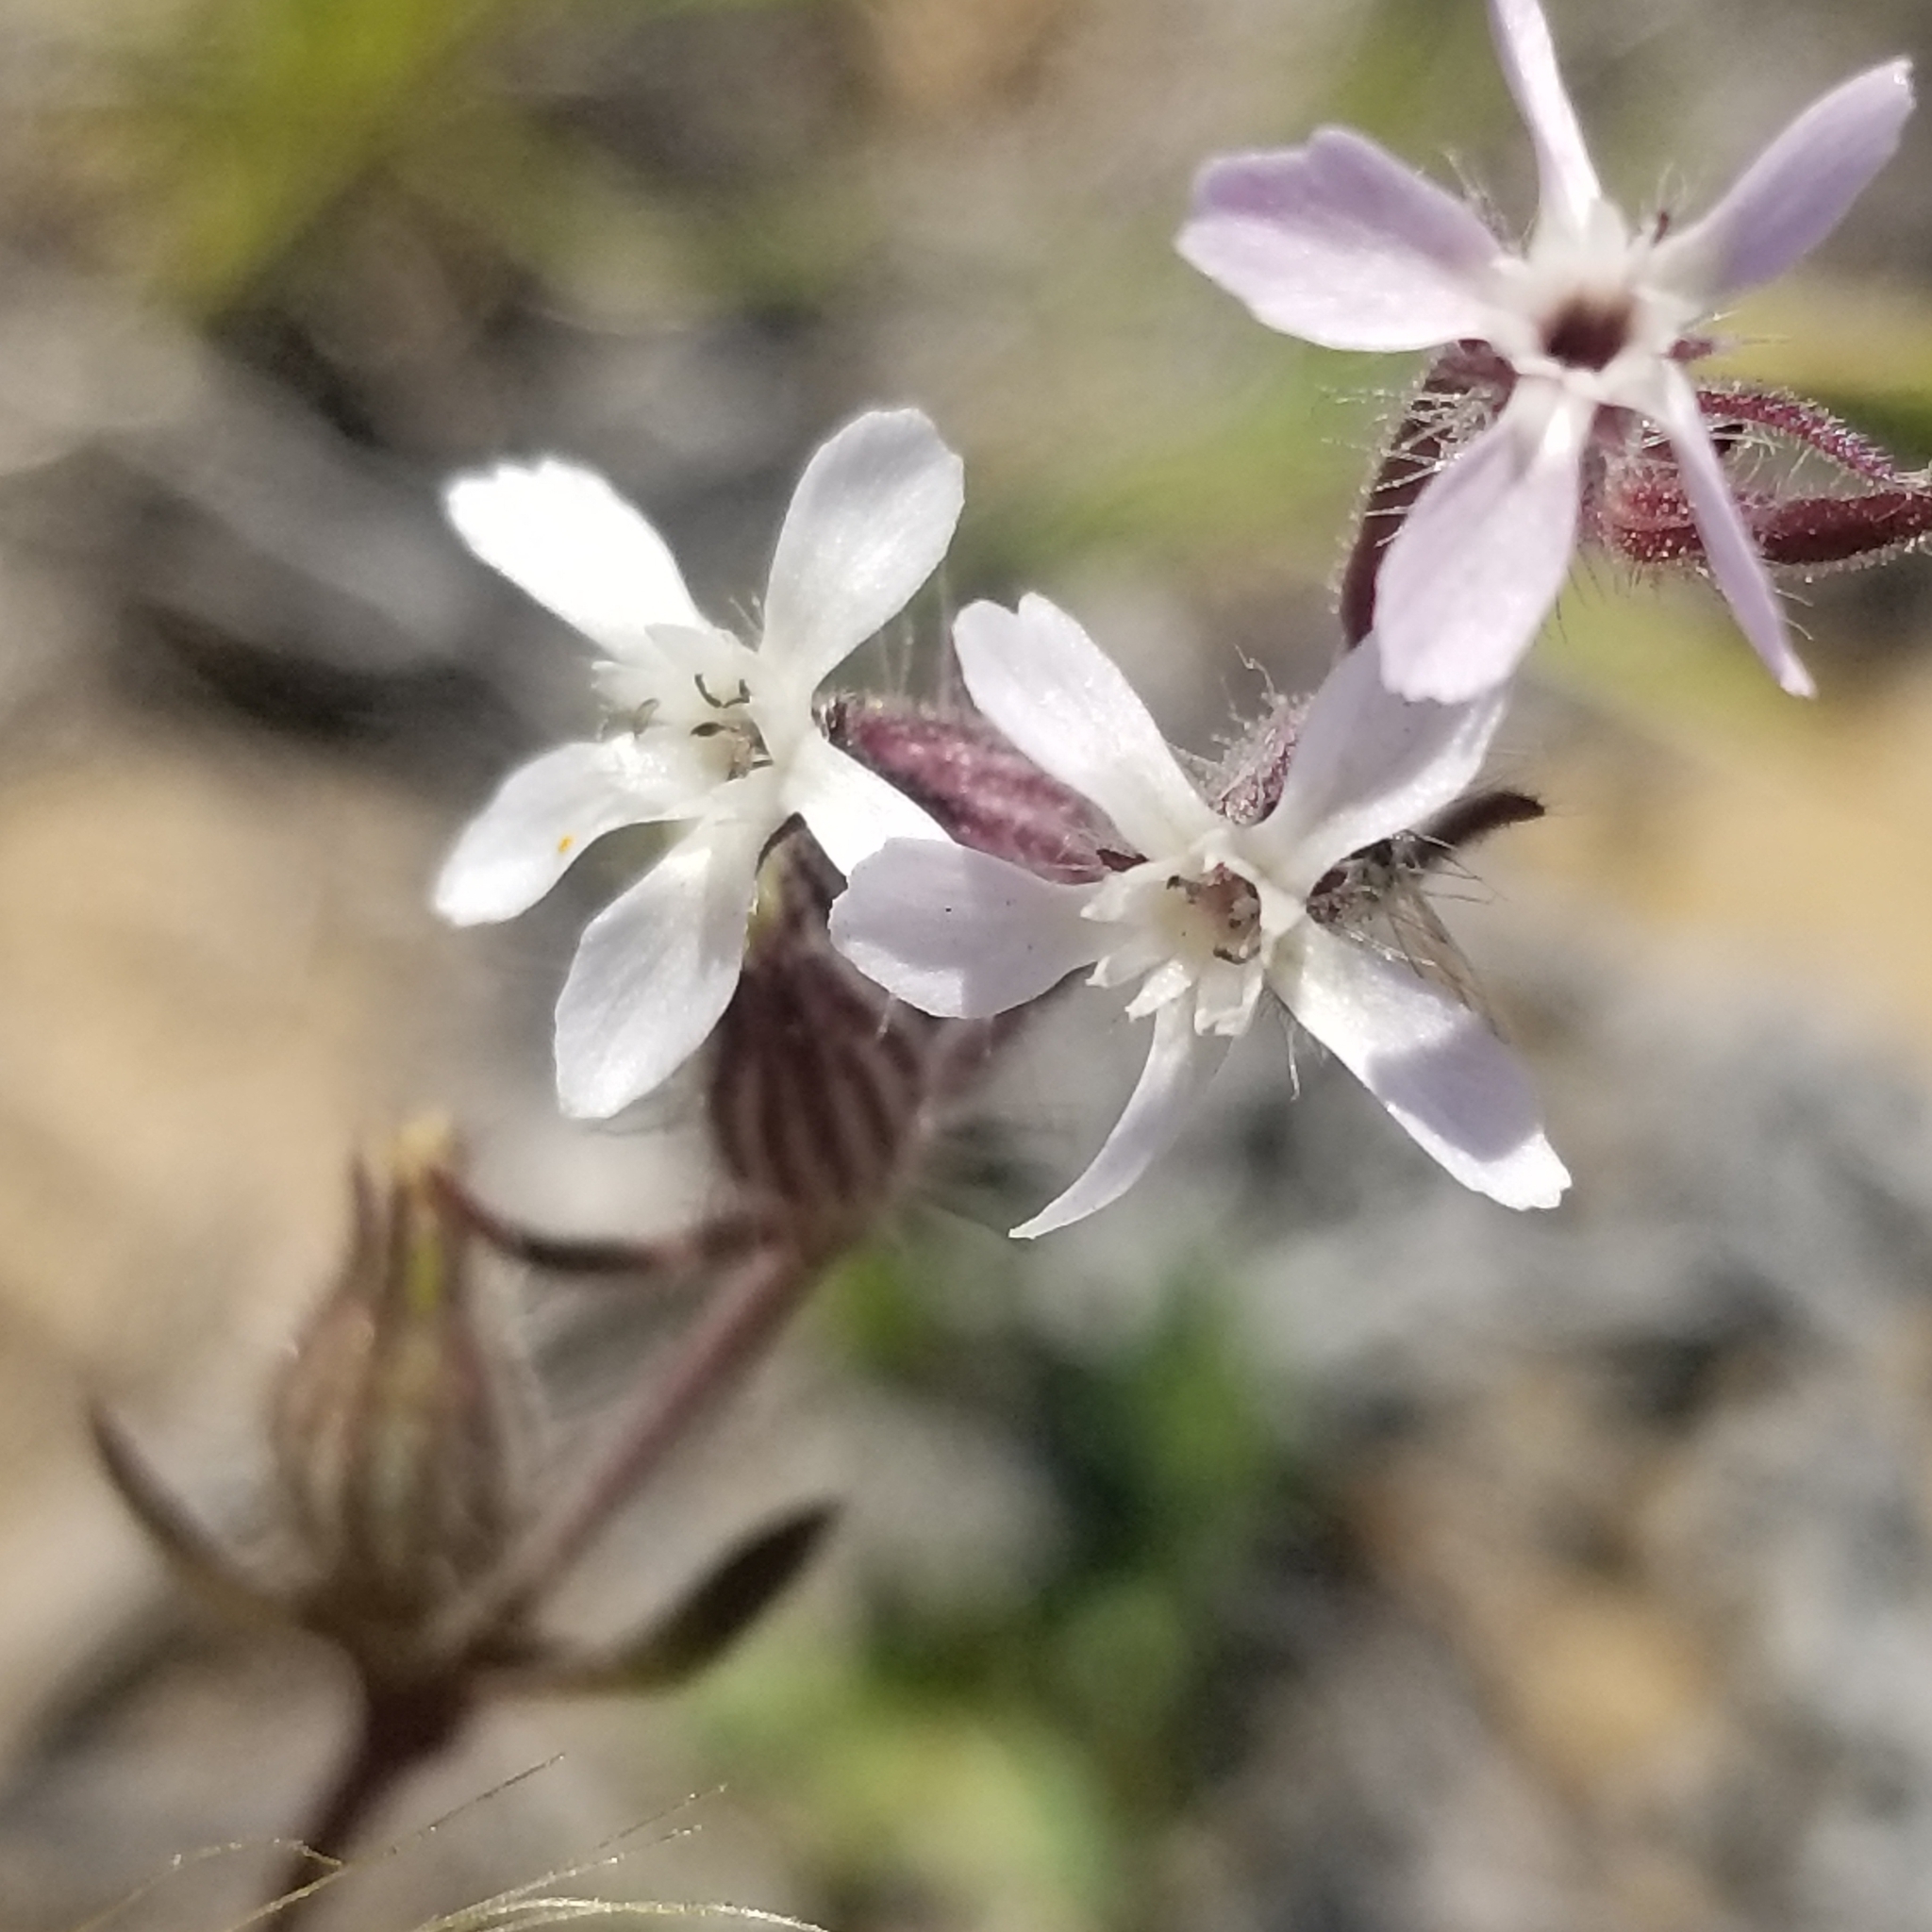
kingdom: Plantae
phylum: Tracheophyta
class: Magnoliopsida
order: Caryophyllales
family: Caryophyllaceae
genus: Silene
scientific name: Silene gallica
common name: Small-flowered catchfly
